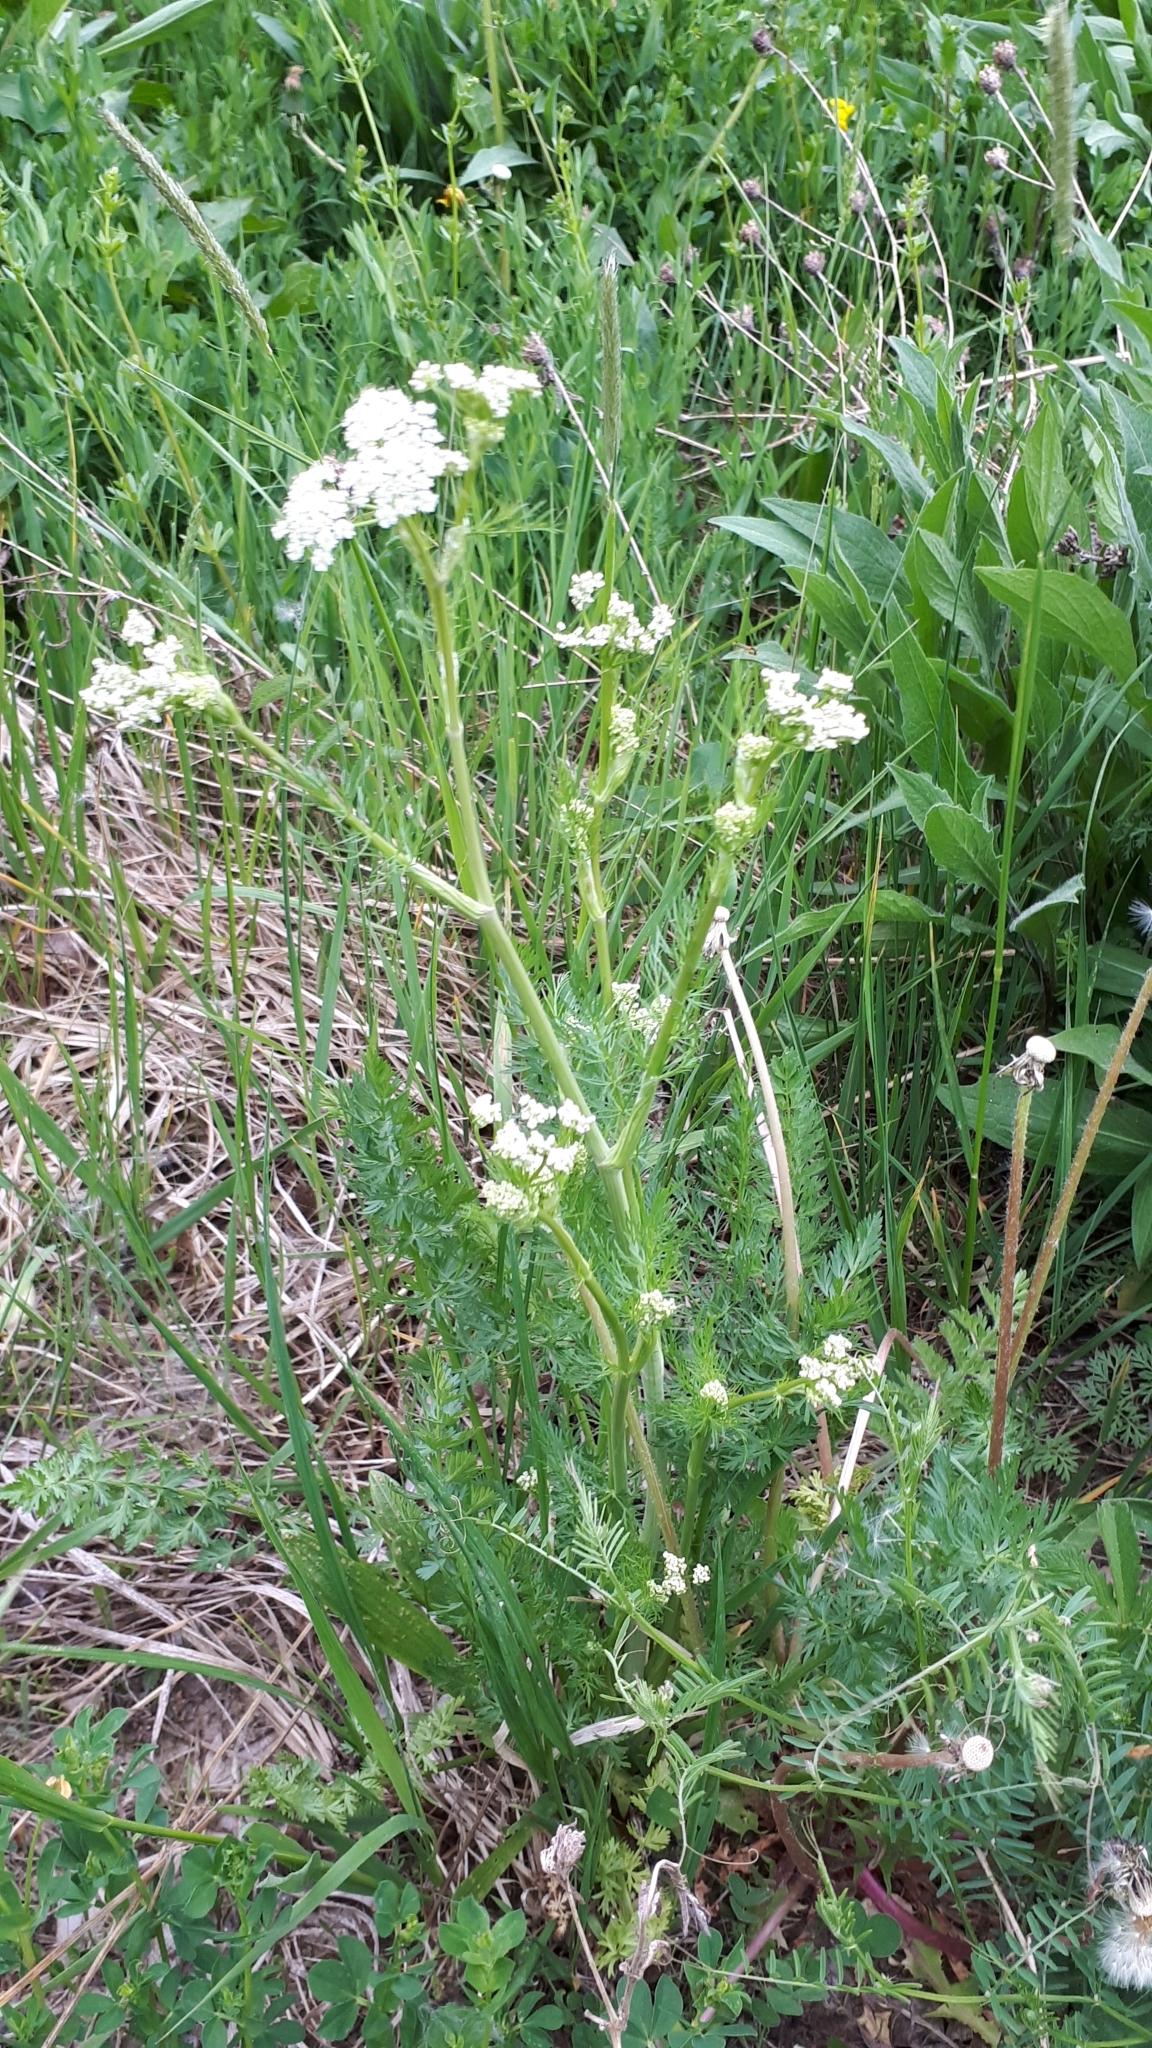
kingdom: Plantae
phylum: Tracheophyta
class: Magnoliopsida
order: Apiales
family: Apiaceae
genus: Carum
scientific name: Carum carvi
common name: Caraway
